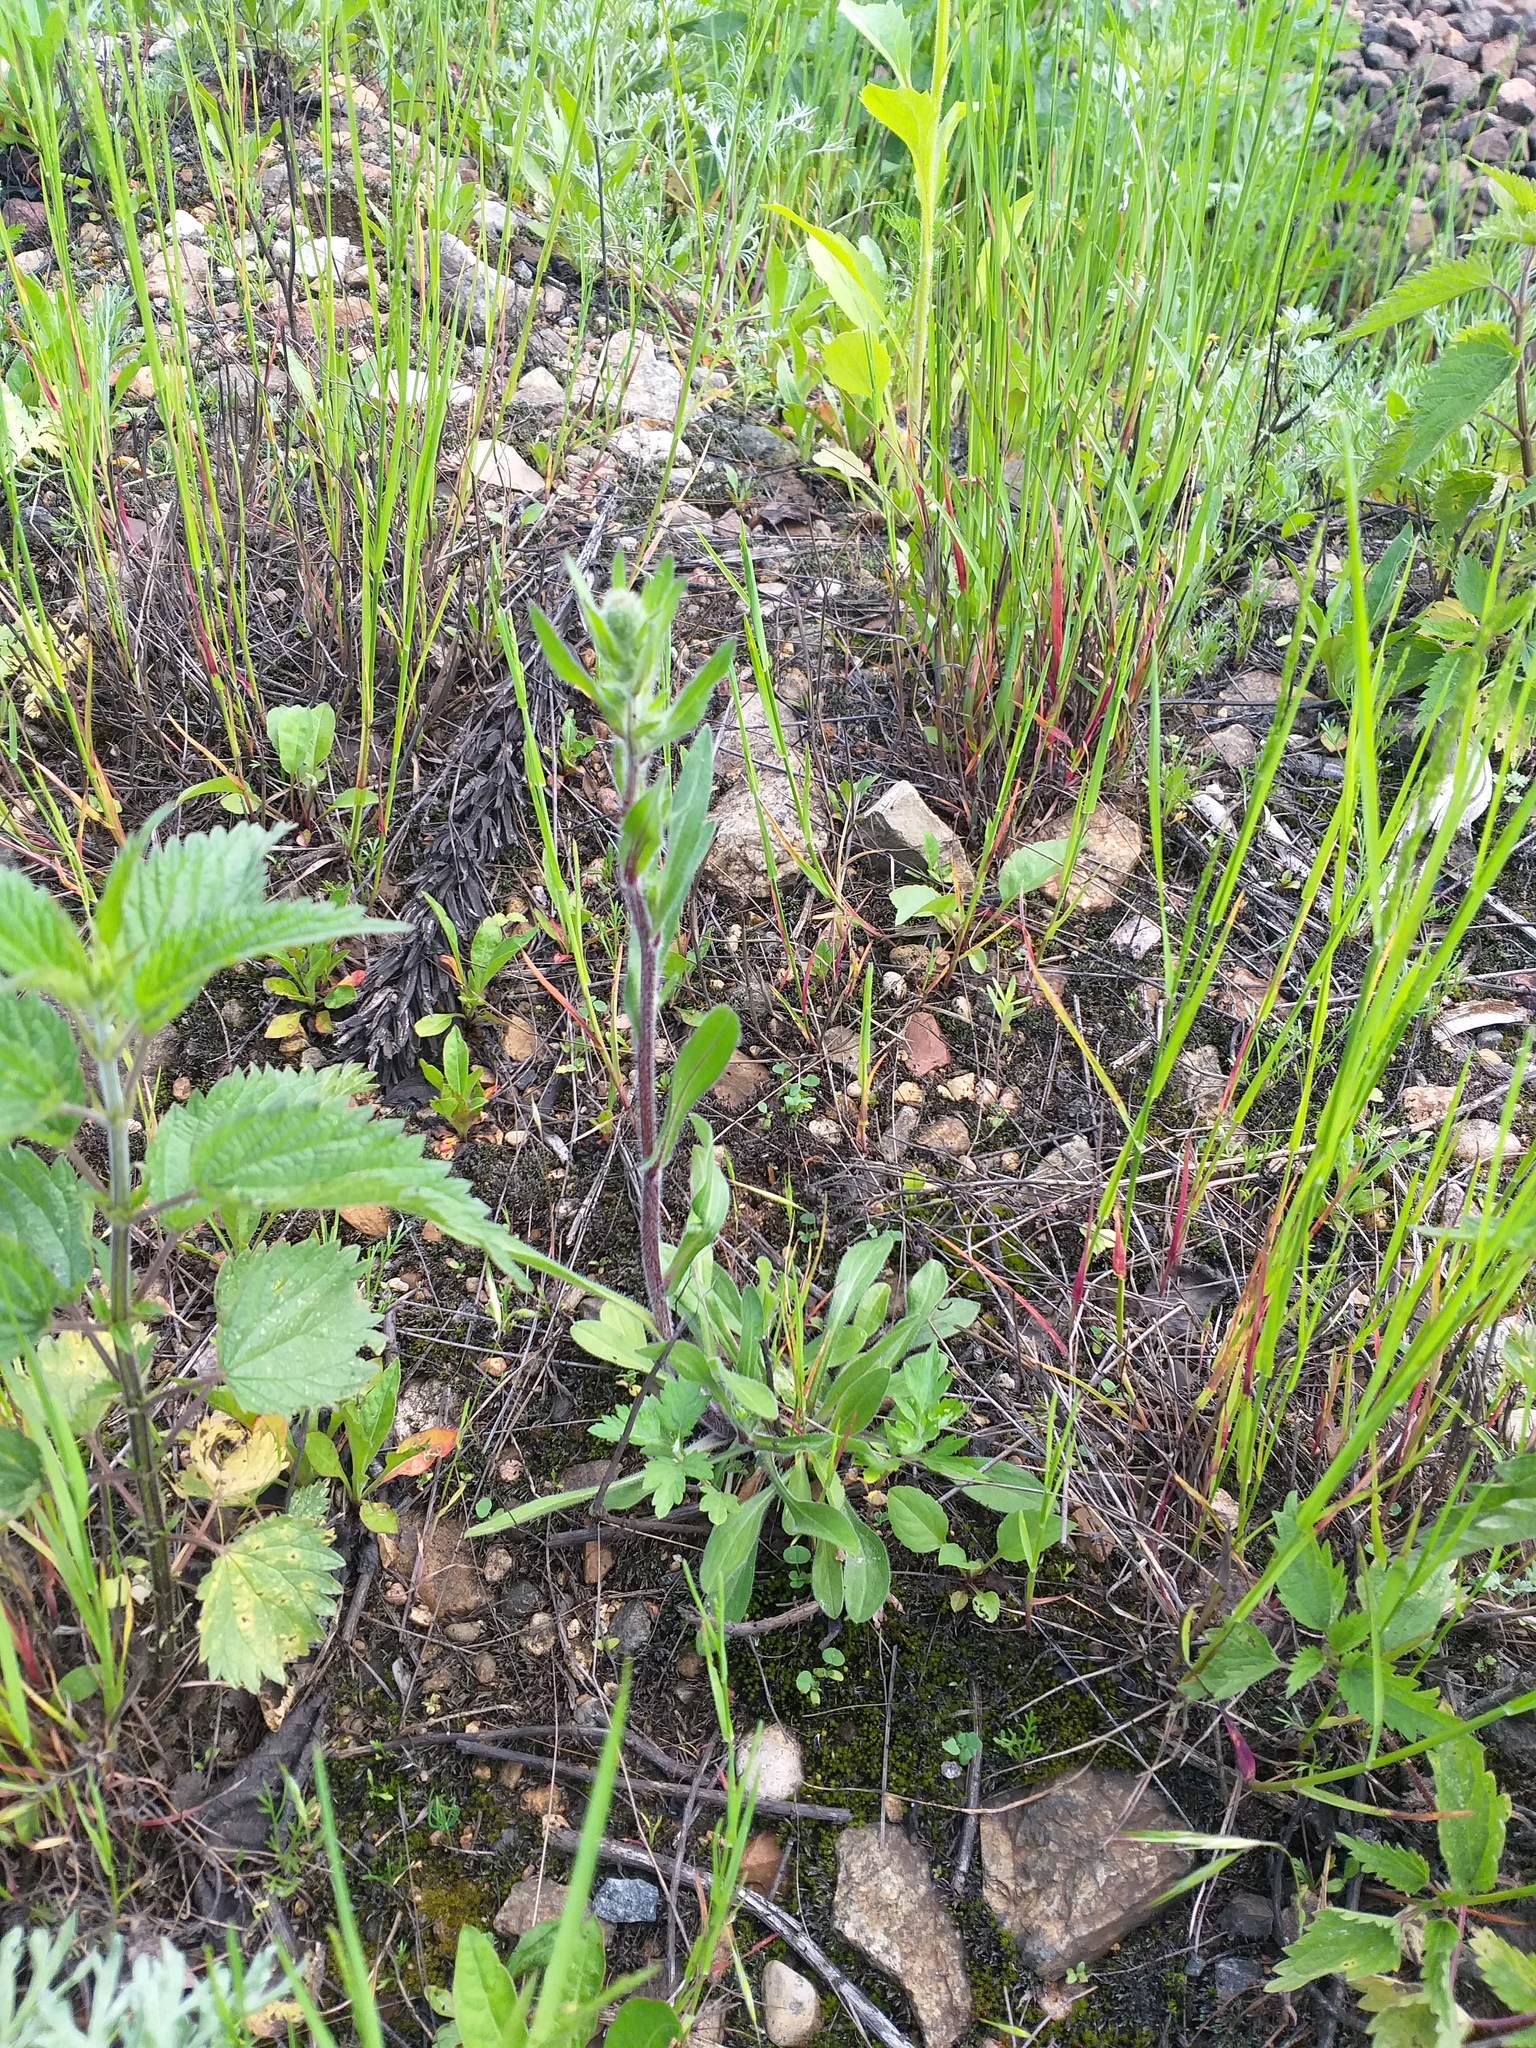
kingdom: Plantae
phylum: Tracheophyta
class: Magnoliopsida
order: Asterales
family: Asteraceae
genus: Erigeron
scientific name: Erigeron acris
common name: Blue fleabane
